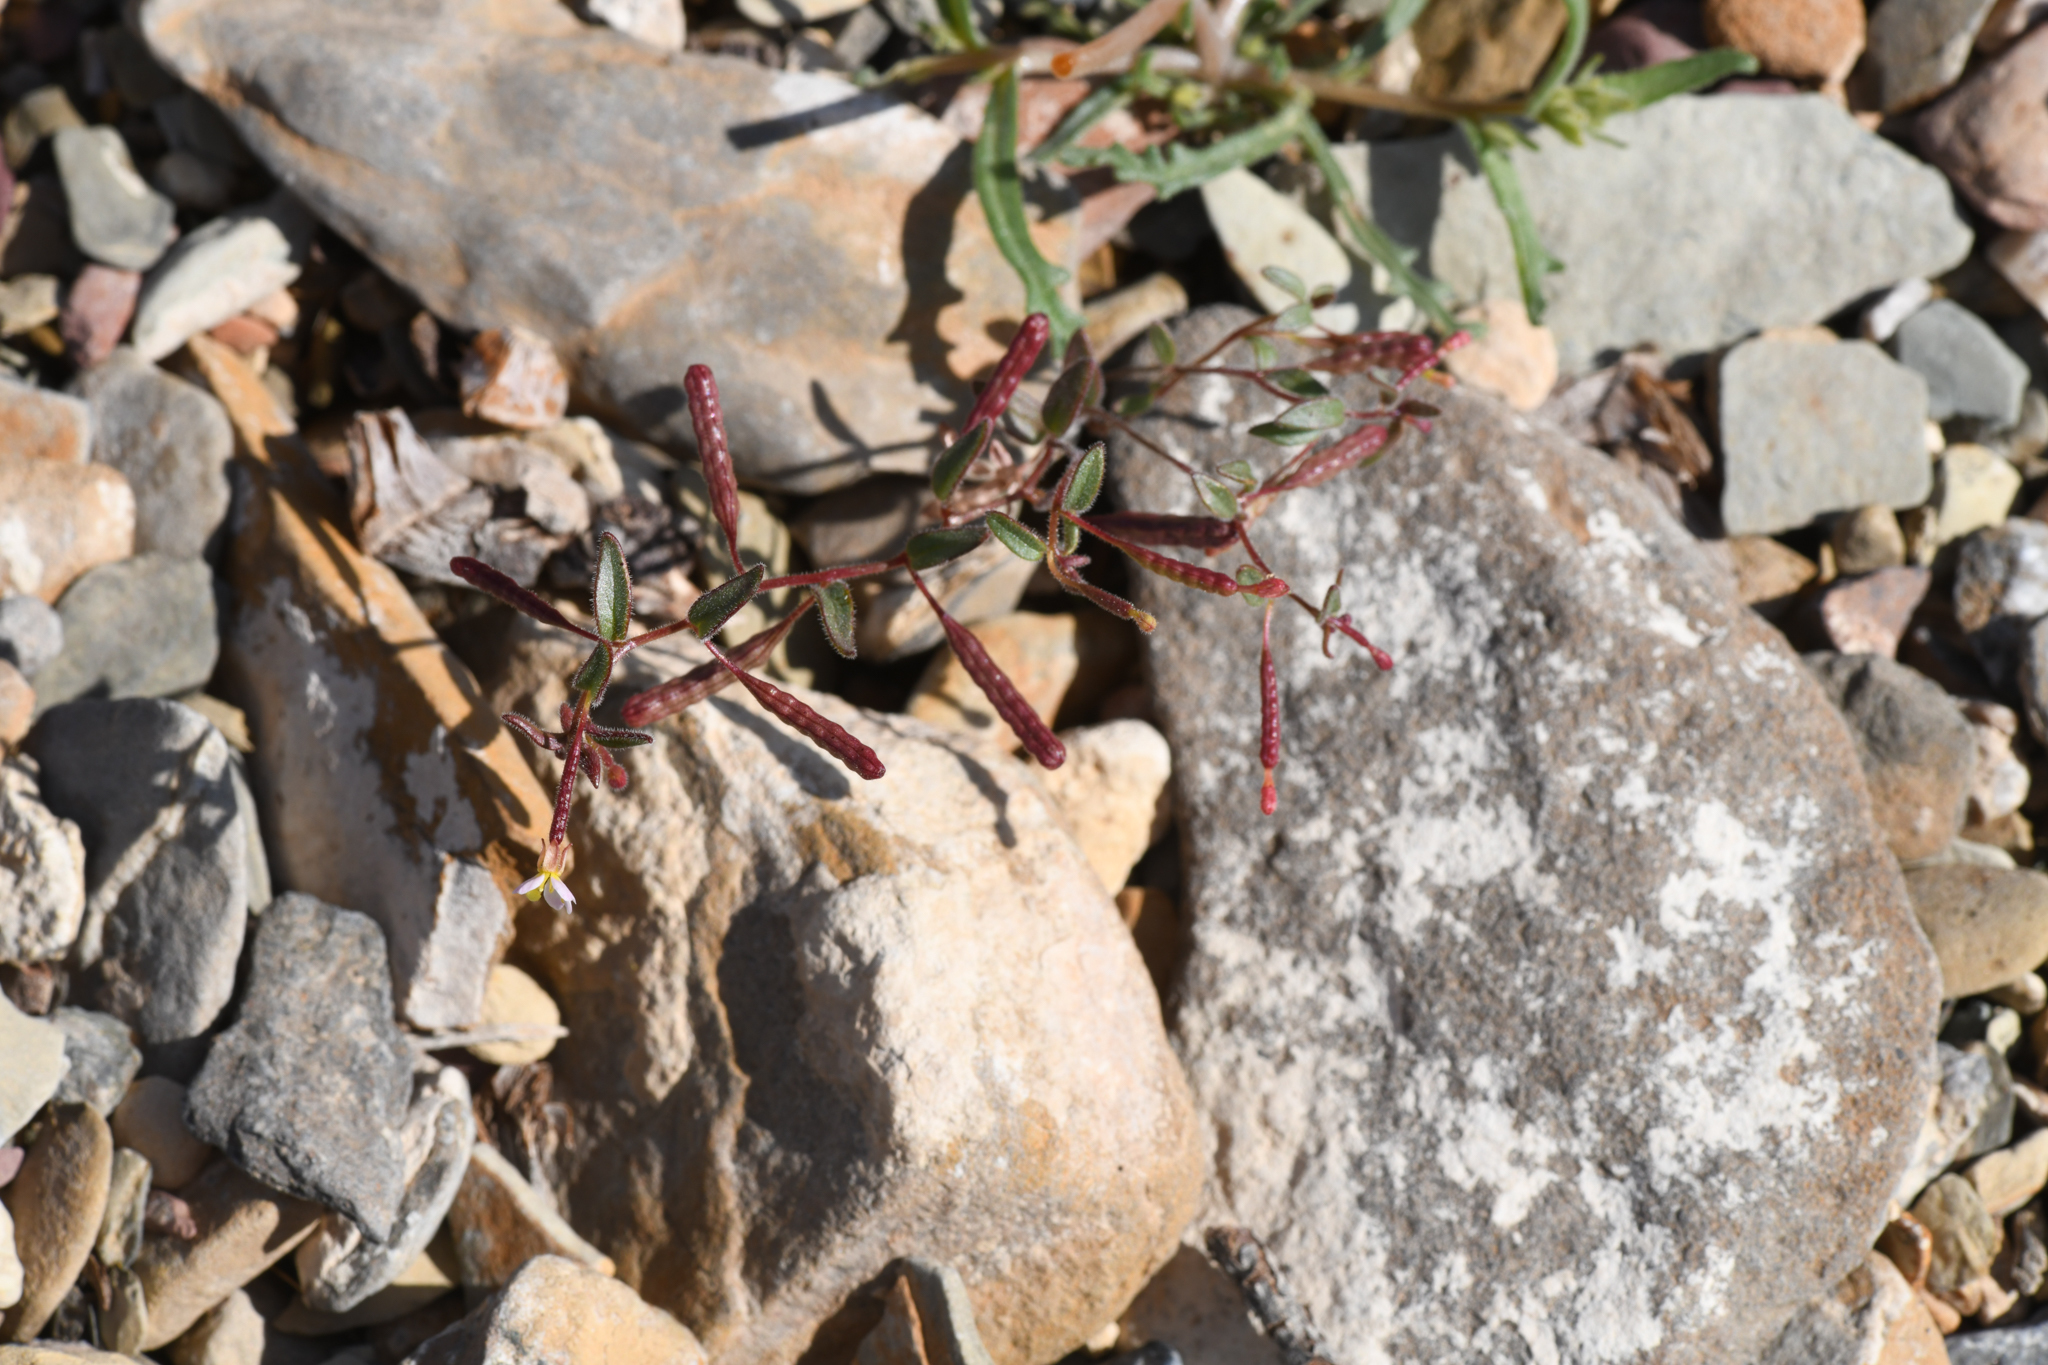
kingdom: Plantae
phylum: Tracheophyta
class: Magnoliopsida
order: Myrtales
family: Onagraceae
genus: Chylismiella
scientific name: Chylismiella pterosperma
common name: Wingfruit suncup
